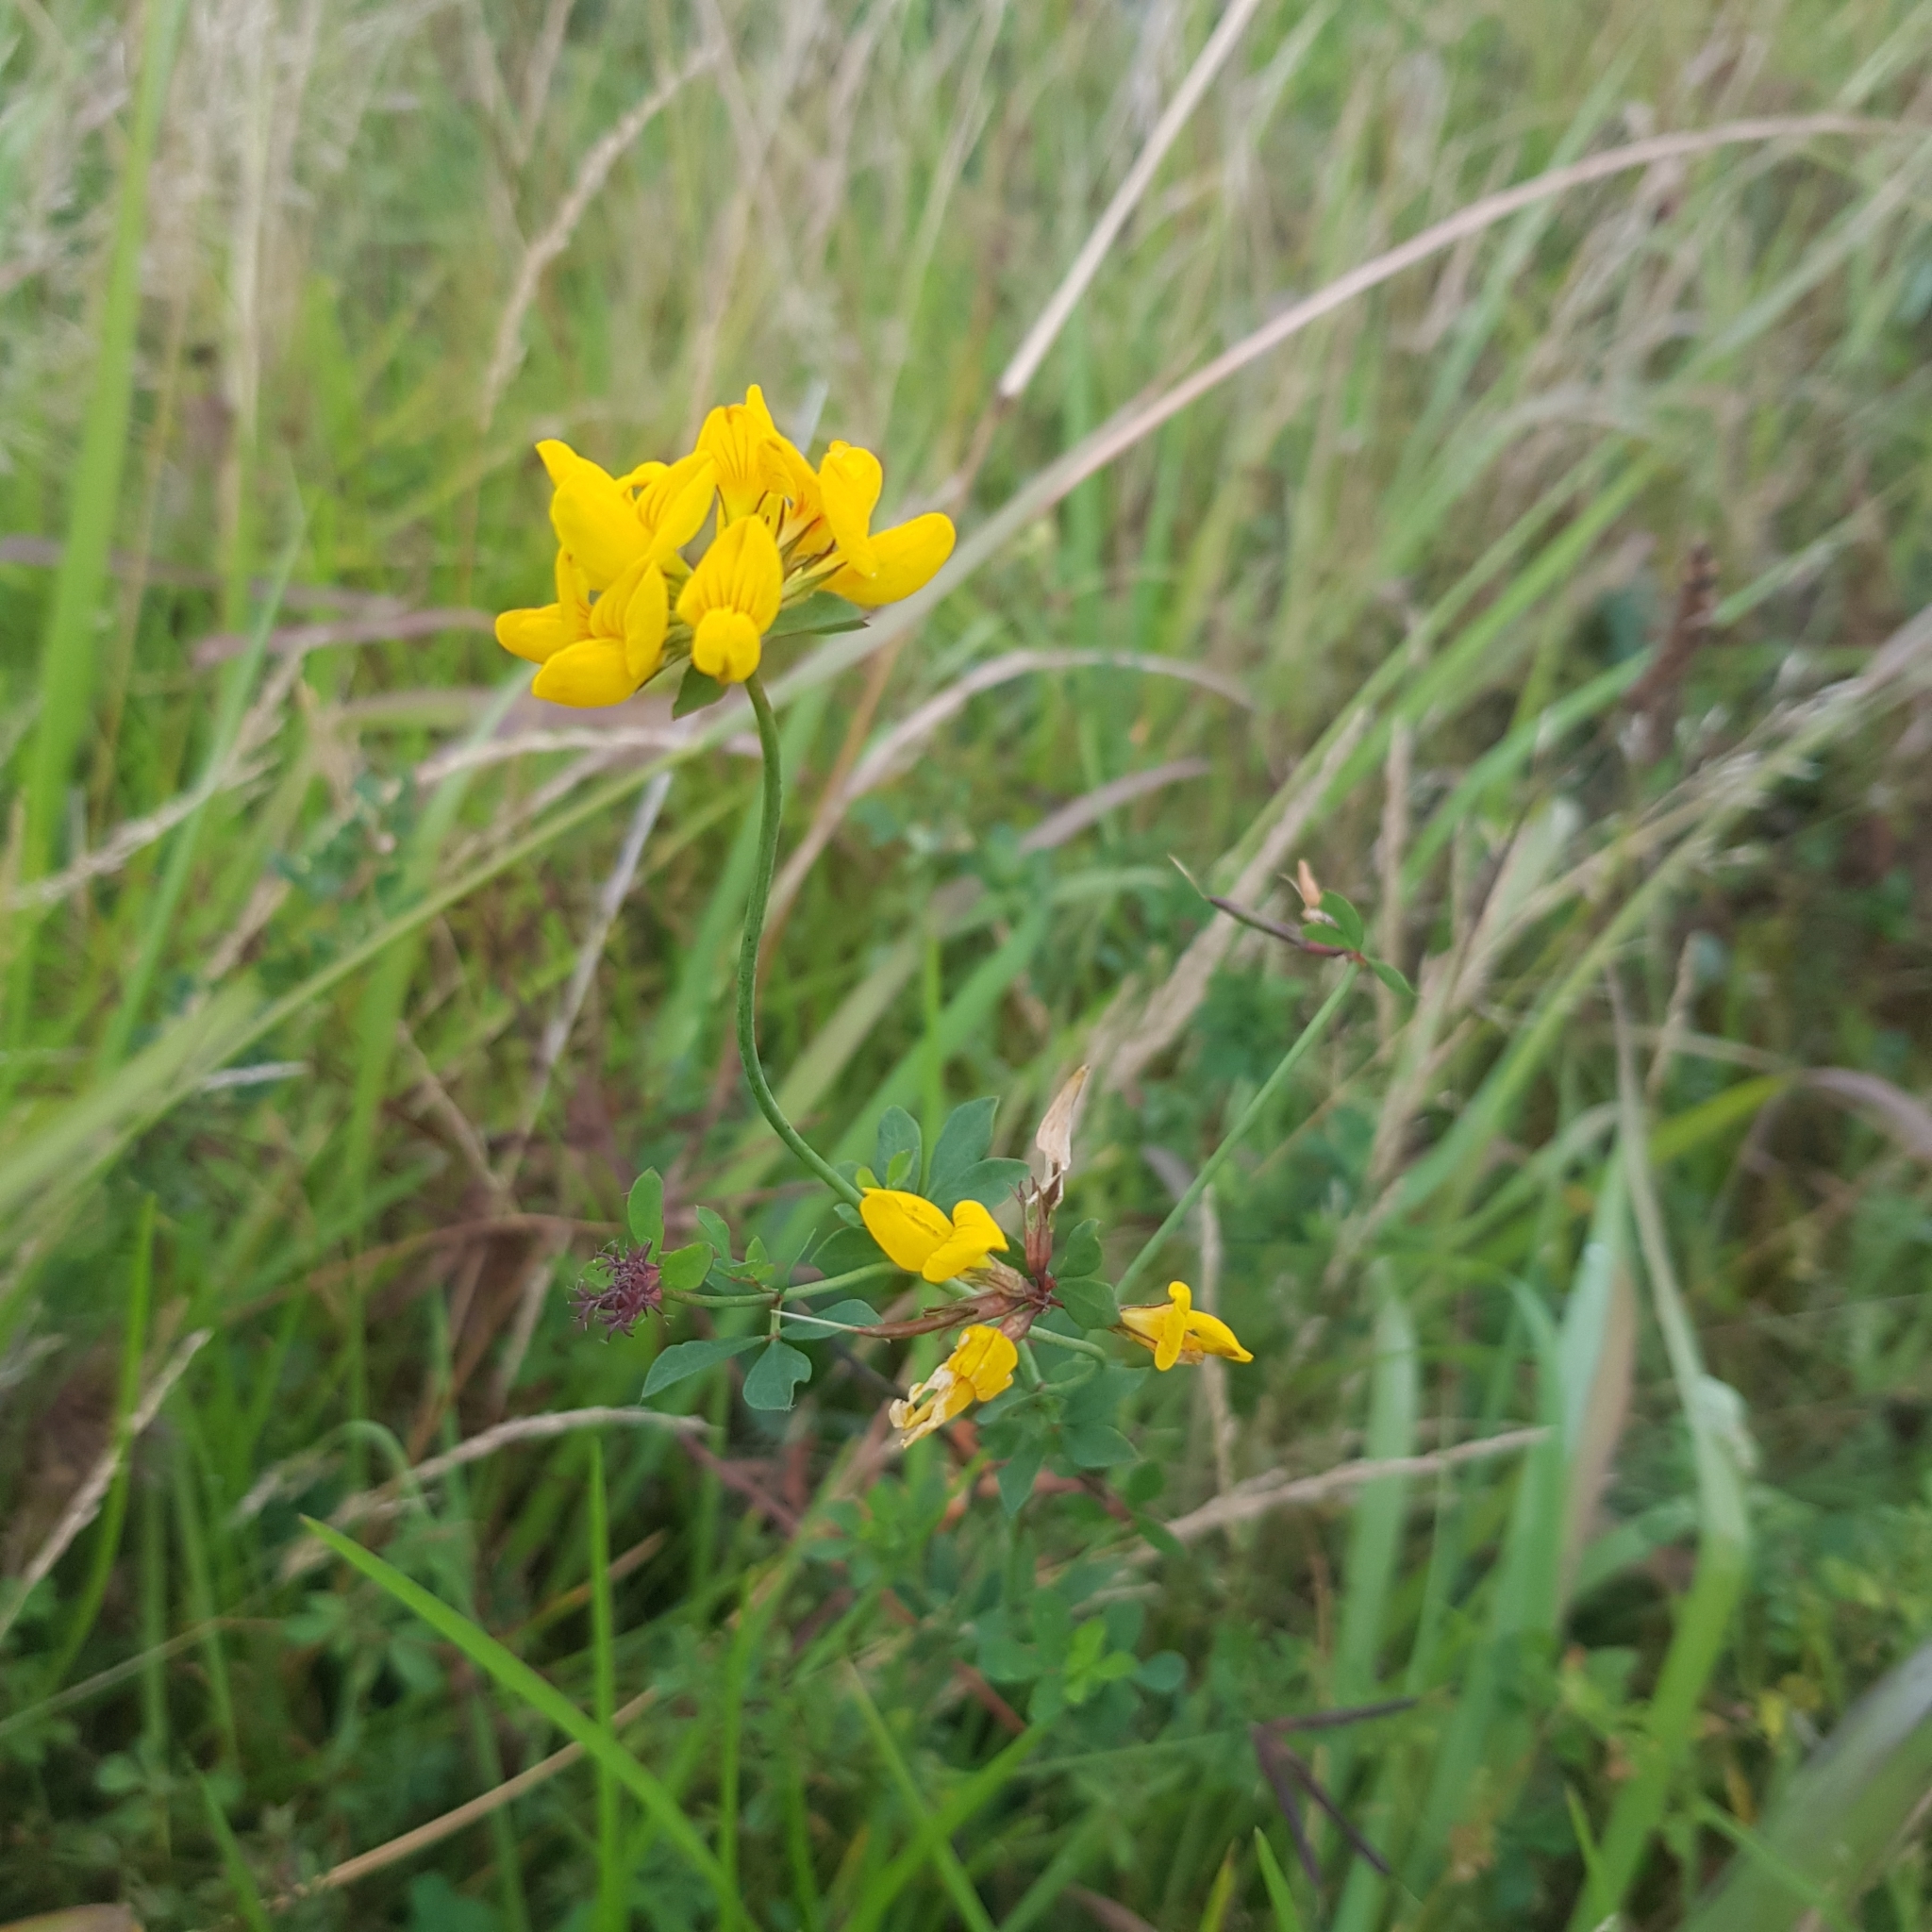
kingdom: Plantae
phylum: Tracheophyta
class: Magnoliopsida
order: Fabales
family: Fabaceae
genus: Lotus
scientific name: Lotus pedunculatus
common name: Greater birdsfoot-trefoil
